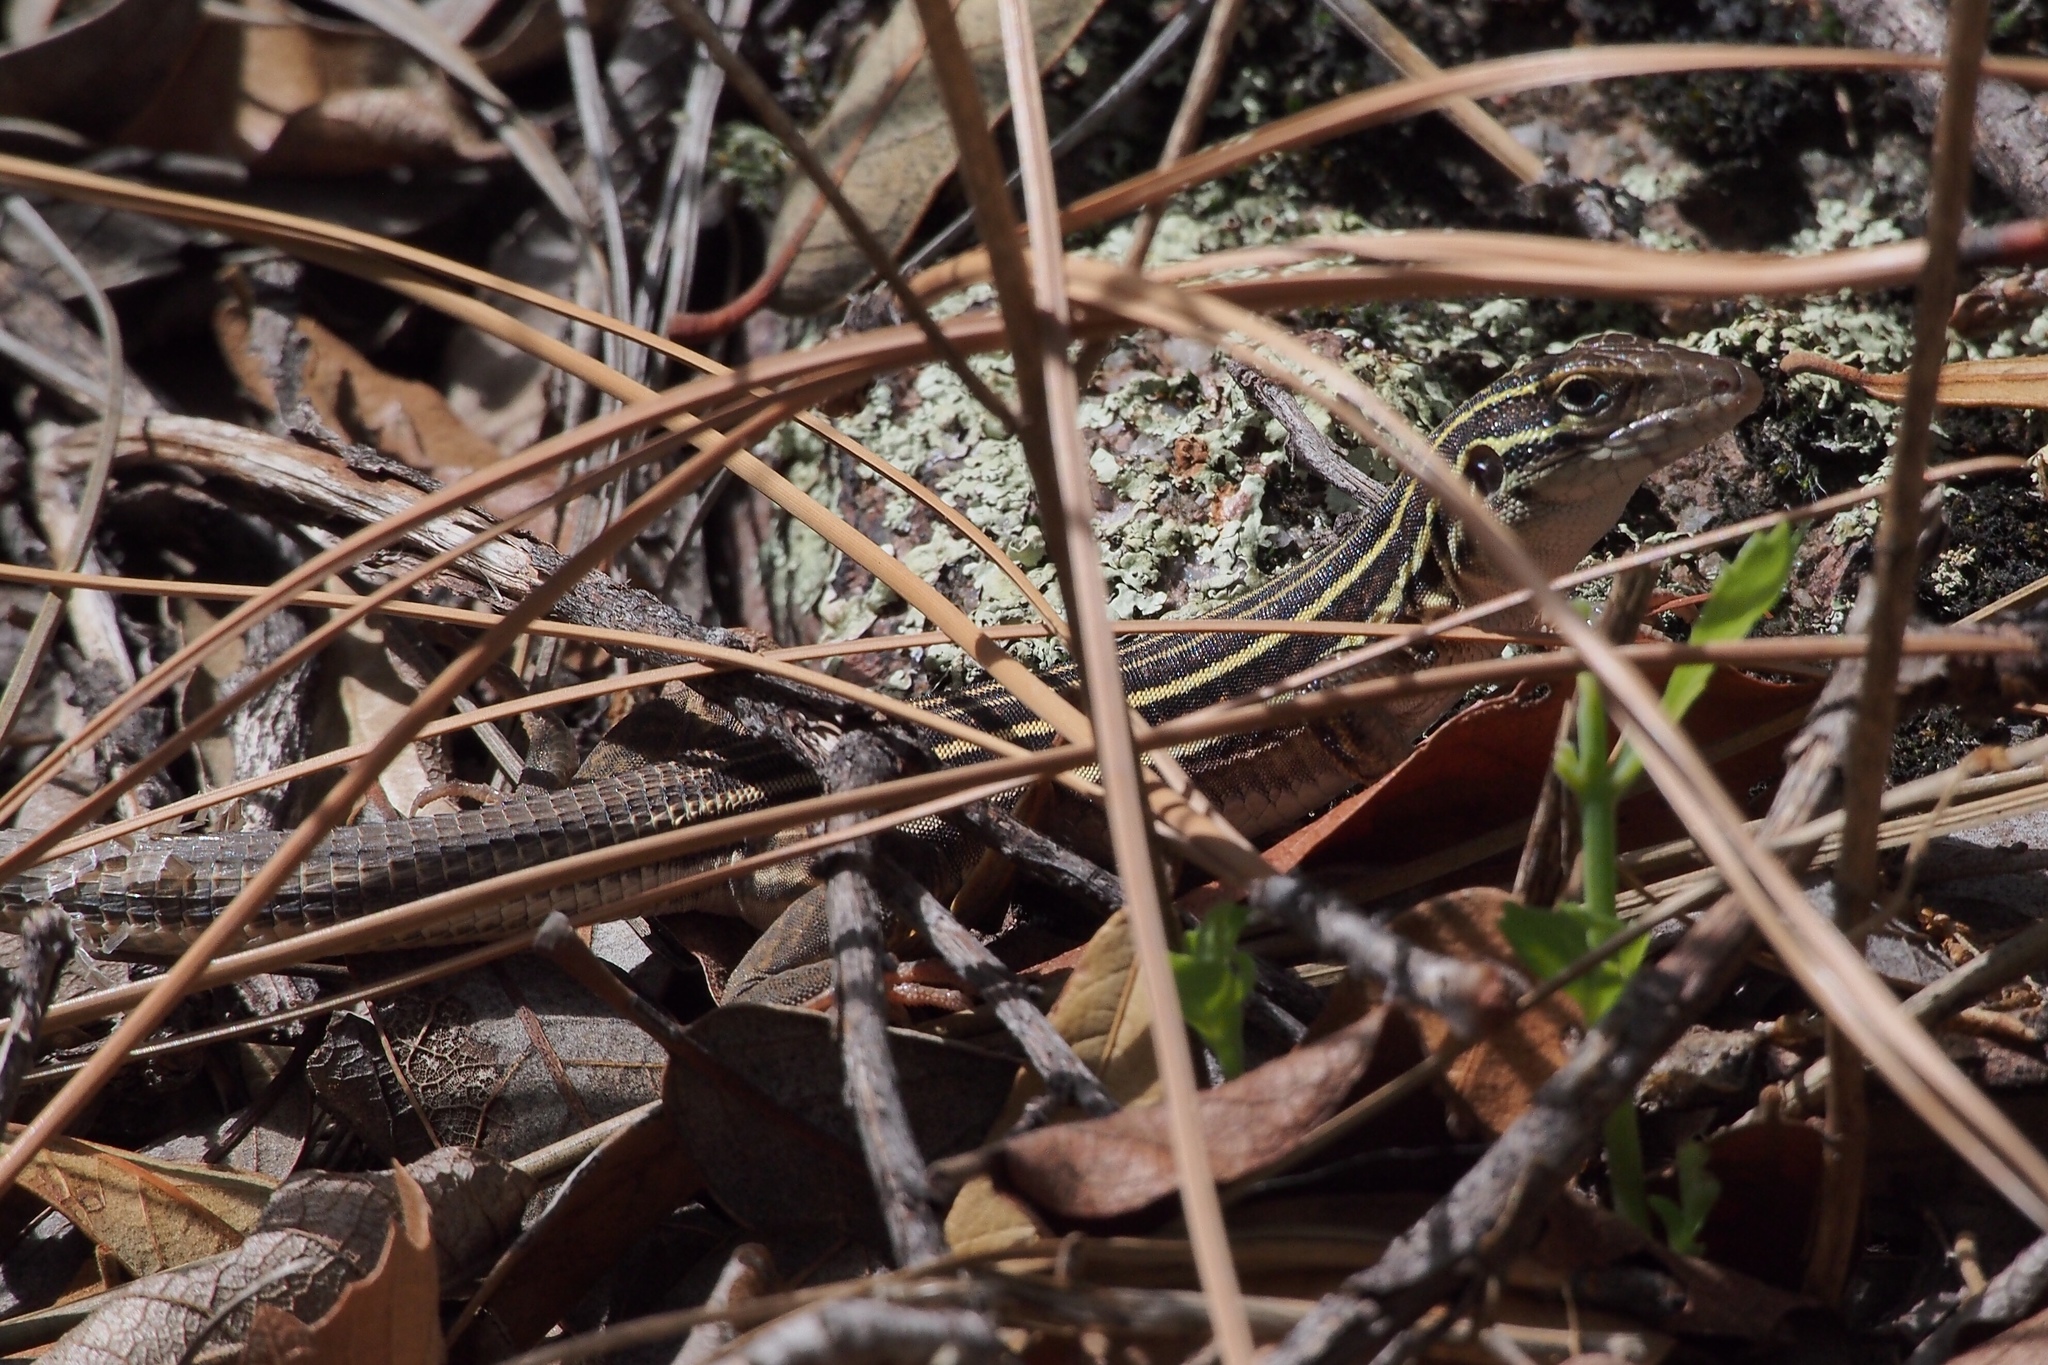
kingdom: Animalia
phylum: Chordata
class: Squamata
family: Teiidae
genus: Aspidoscelis
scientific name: Aspidoscelis sonorae
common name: Sonoran spotted whiptail
